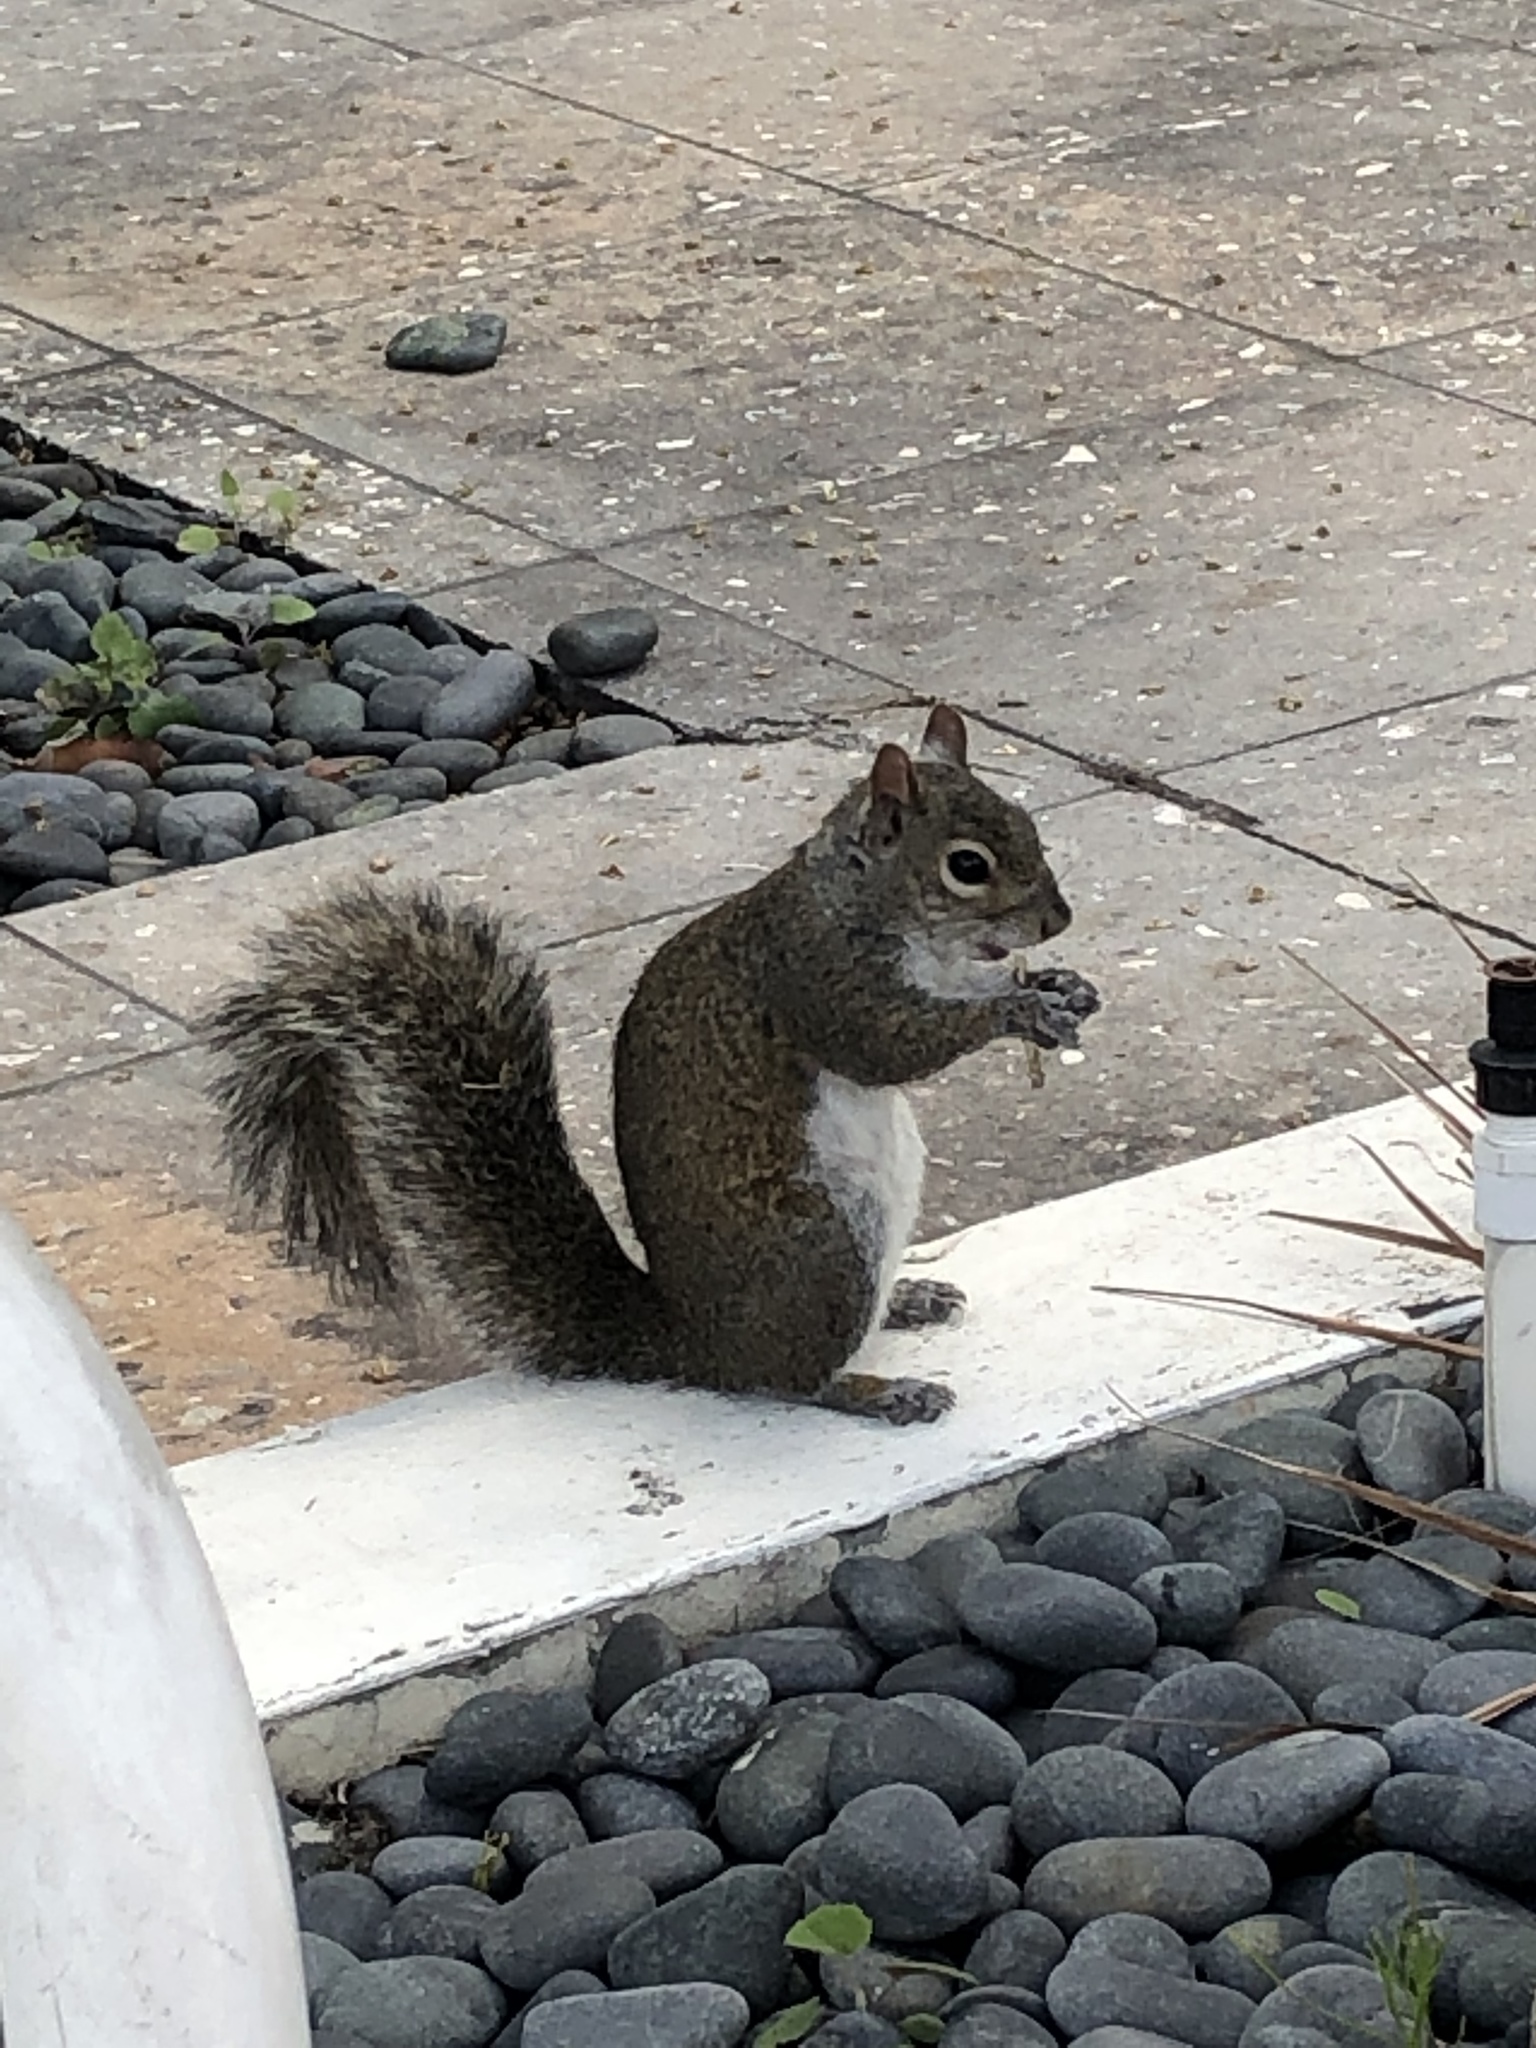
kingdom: Animalia
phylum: Chordata
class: Mammalia
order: Rodentia
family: Sciuridae
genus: Sciurus
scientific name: Sciurus carolinensis
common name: Eastern gray squirrel
